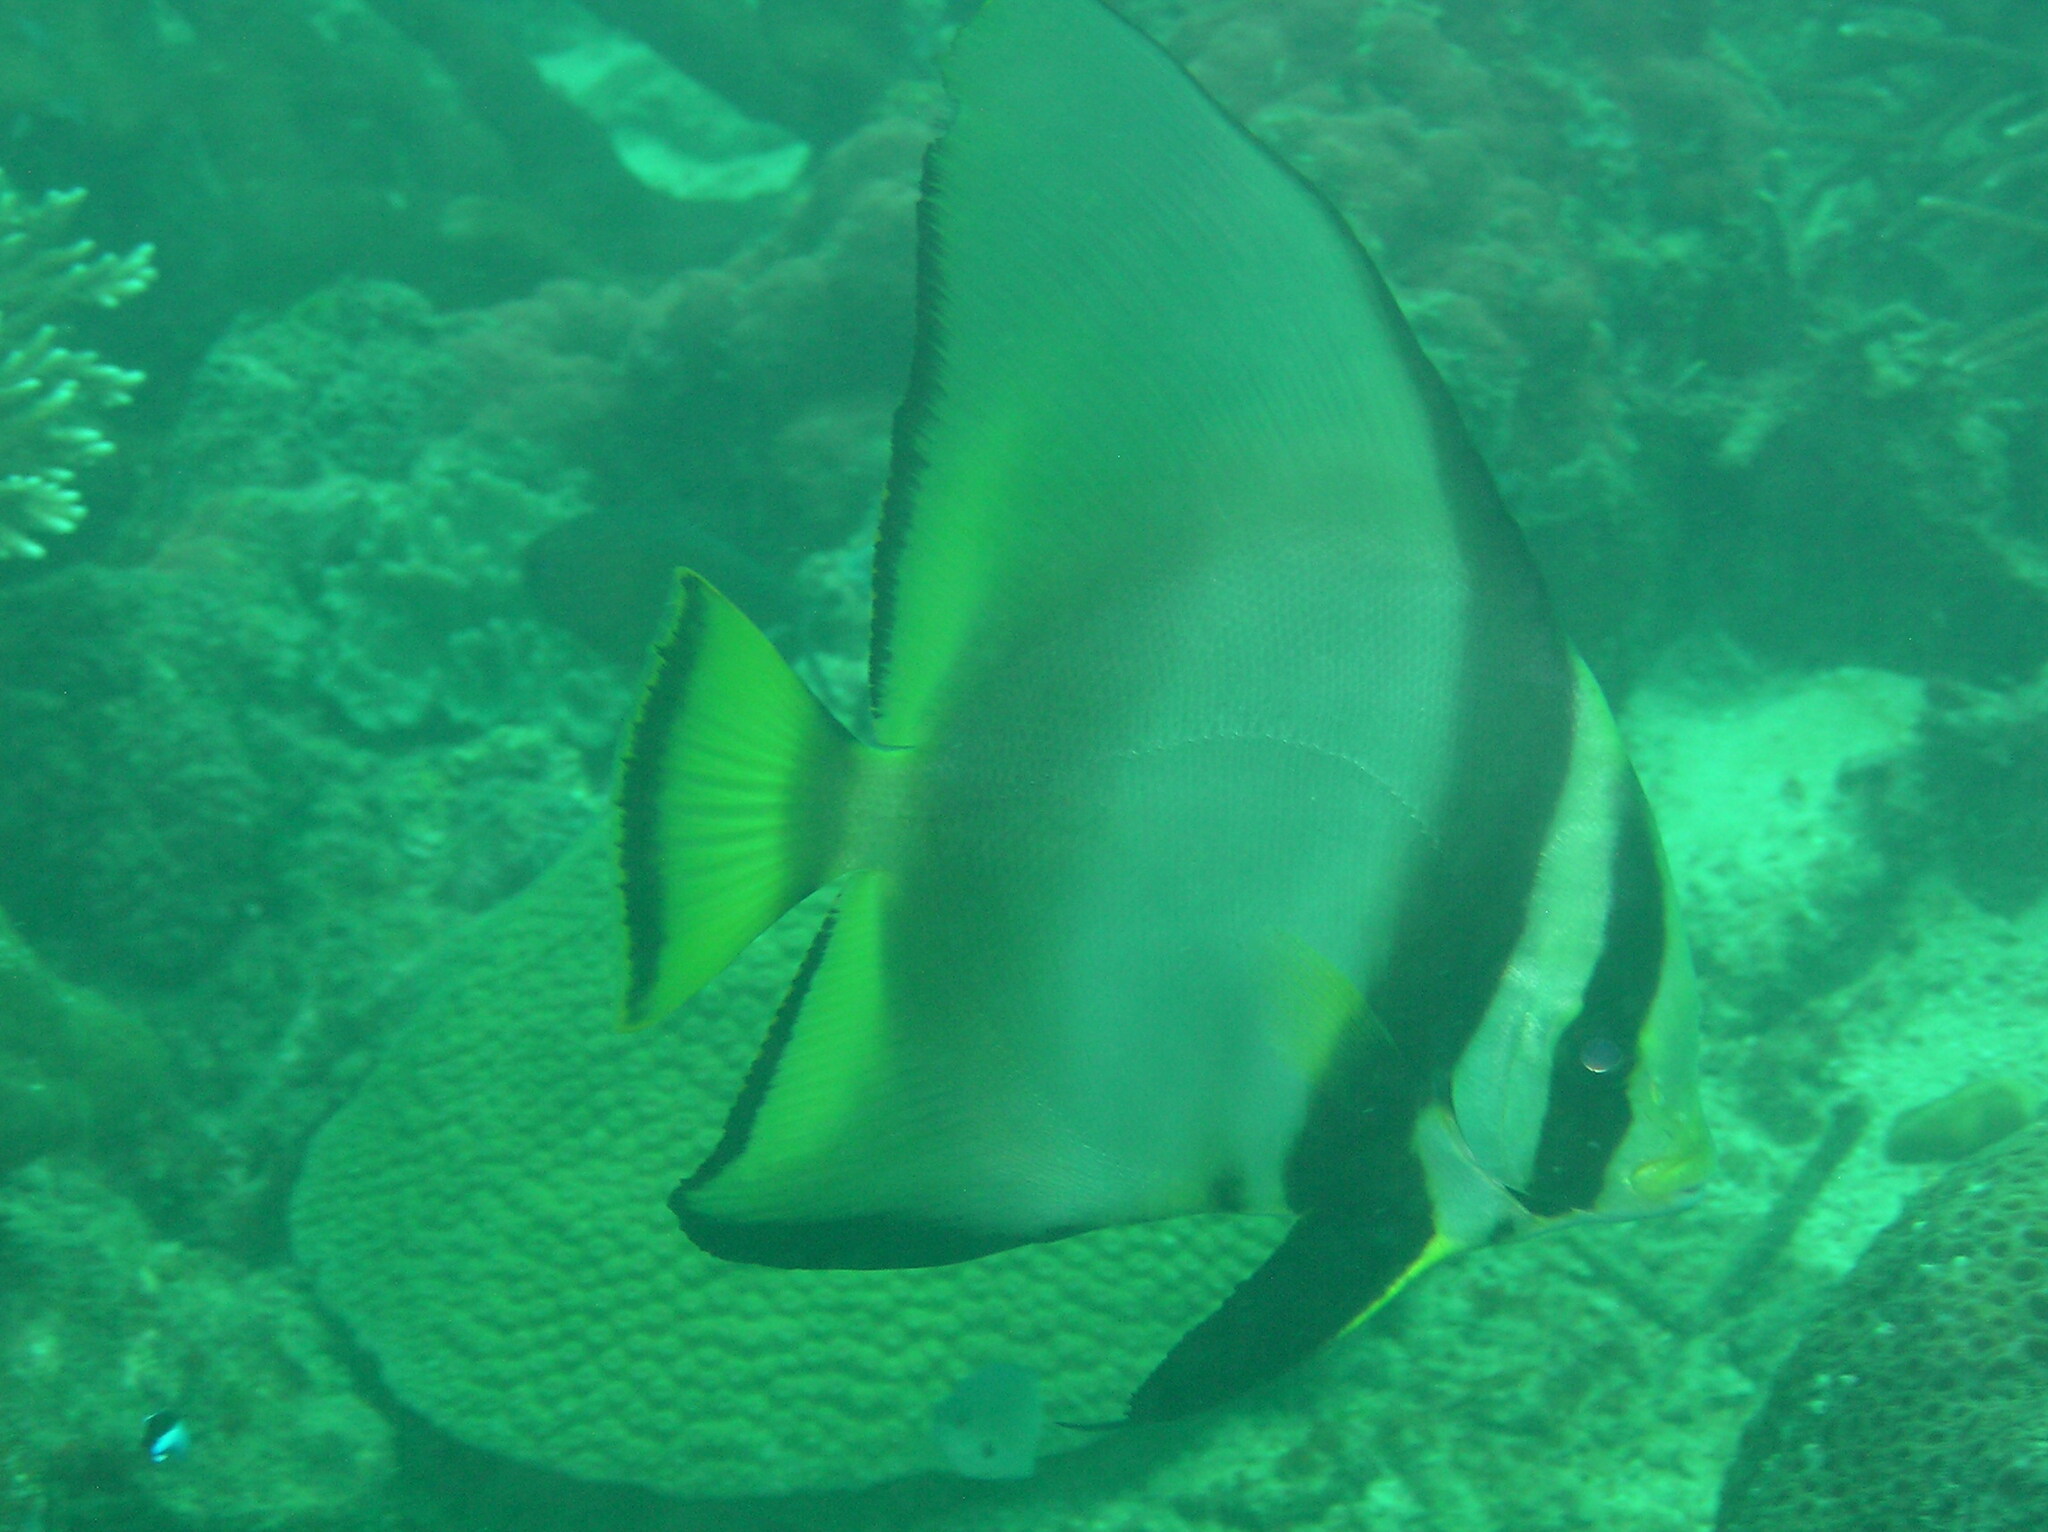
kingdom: Animalia
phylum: Chordata
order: Perciformes
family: Ephippidae
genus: Platax
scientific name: Platax pinnatus
